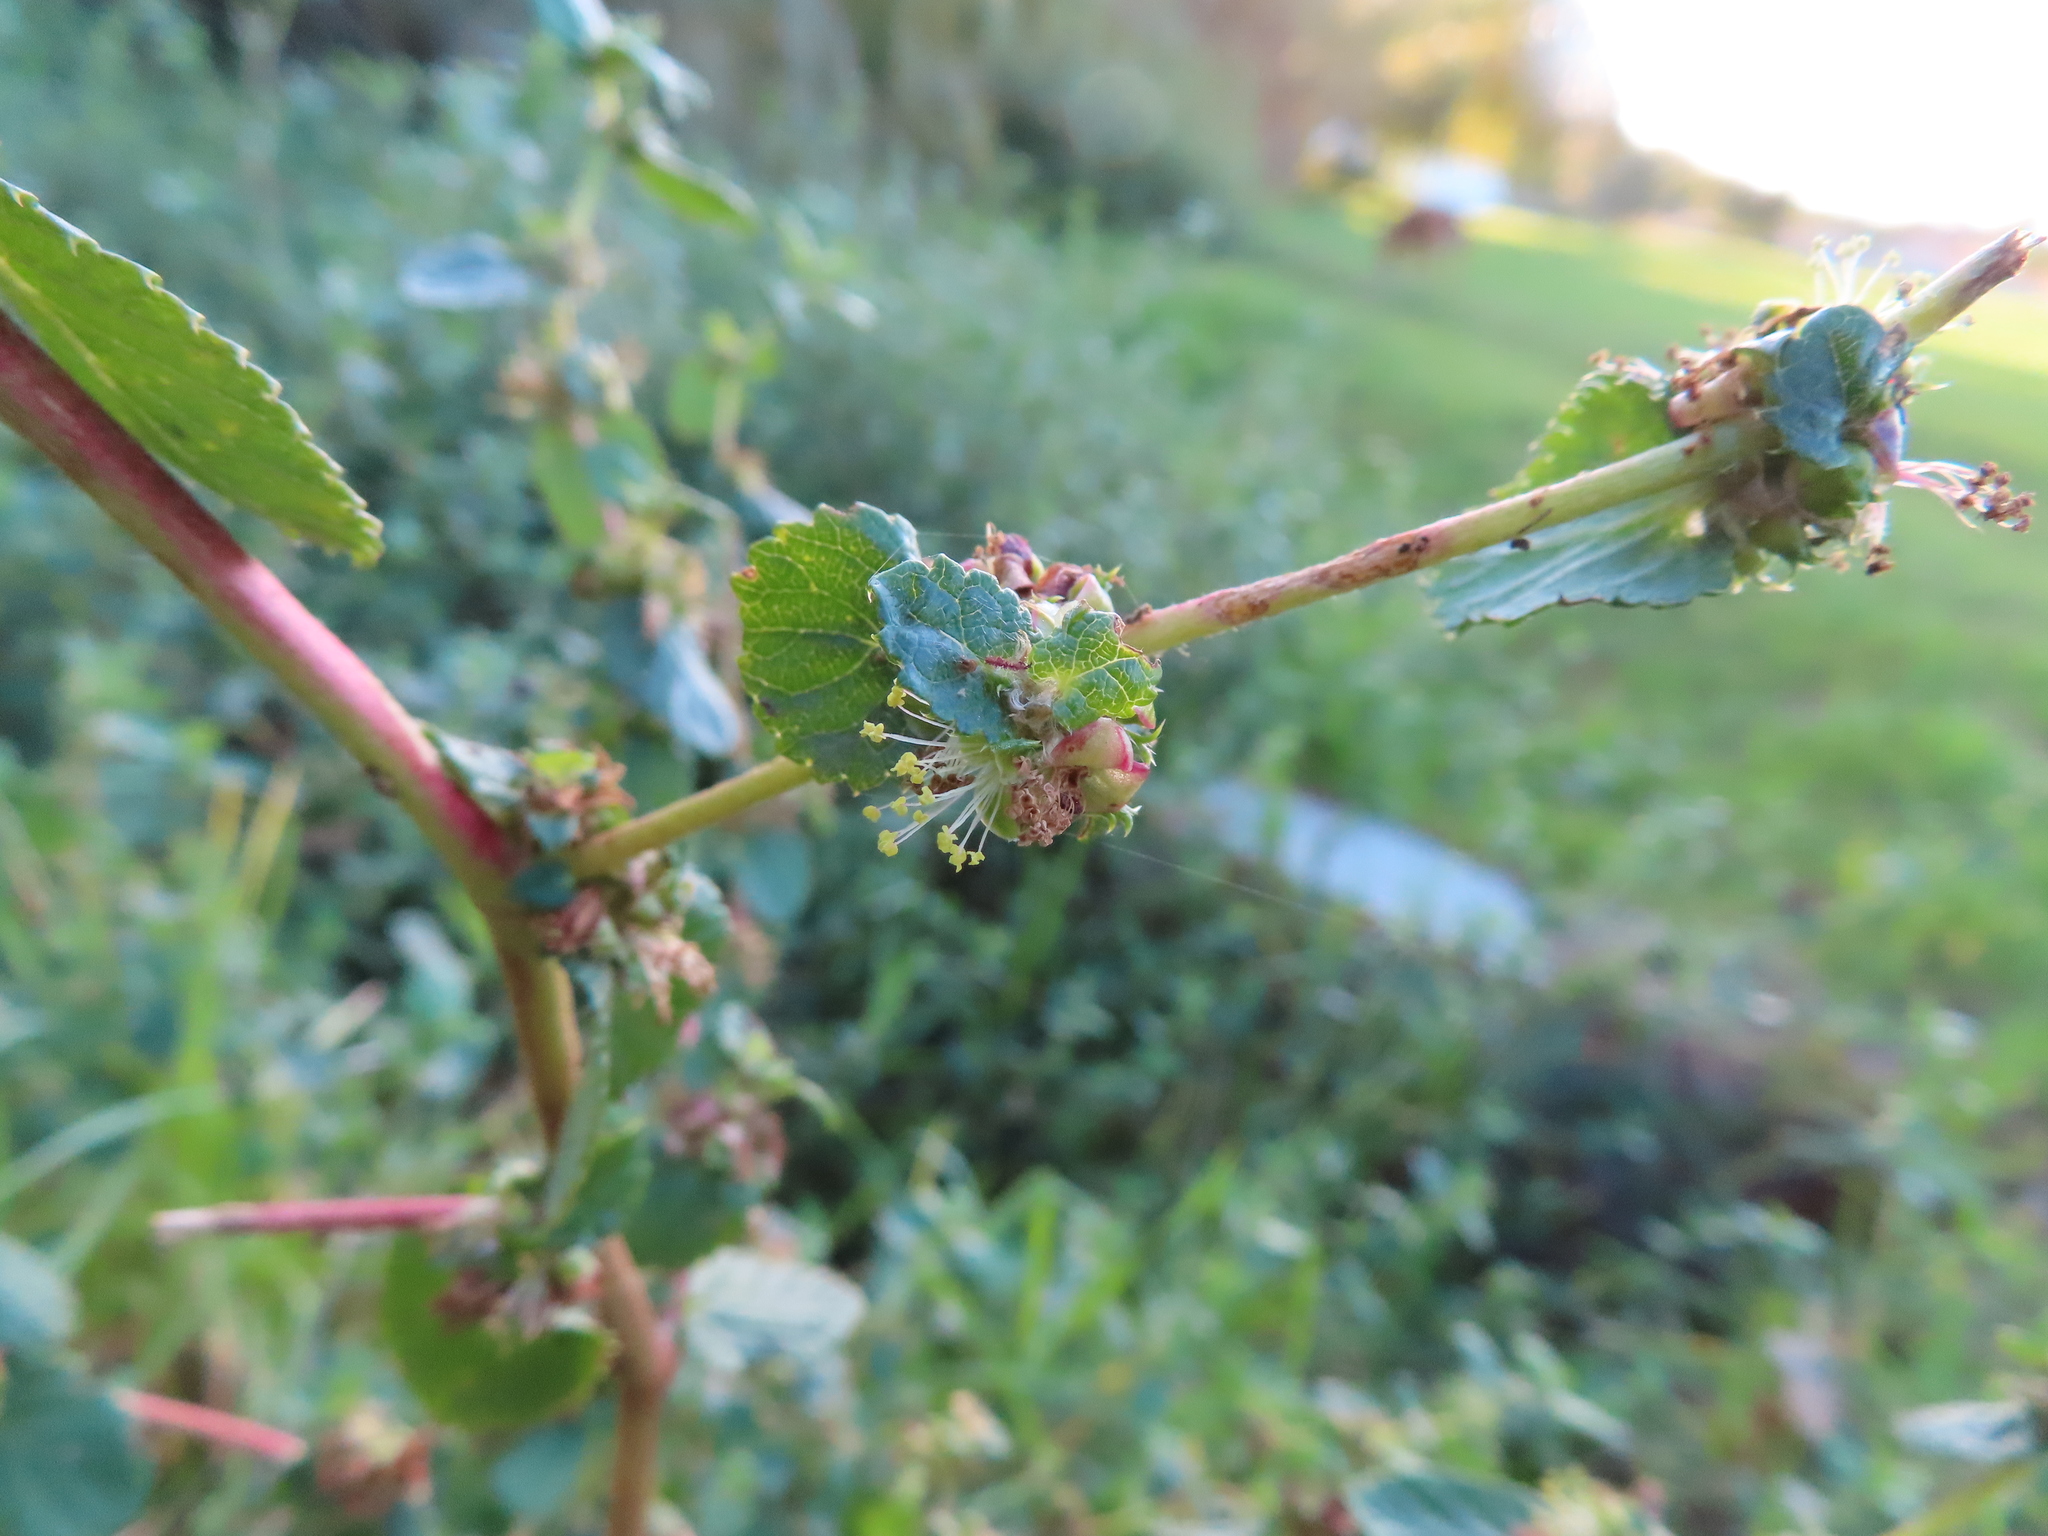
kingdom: Plantae
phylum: Tracheophyta
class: Magnoliopsida
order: Rosales
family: Rosaceae
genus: Cliffortia
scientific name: Cliffortia odorata
